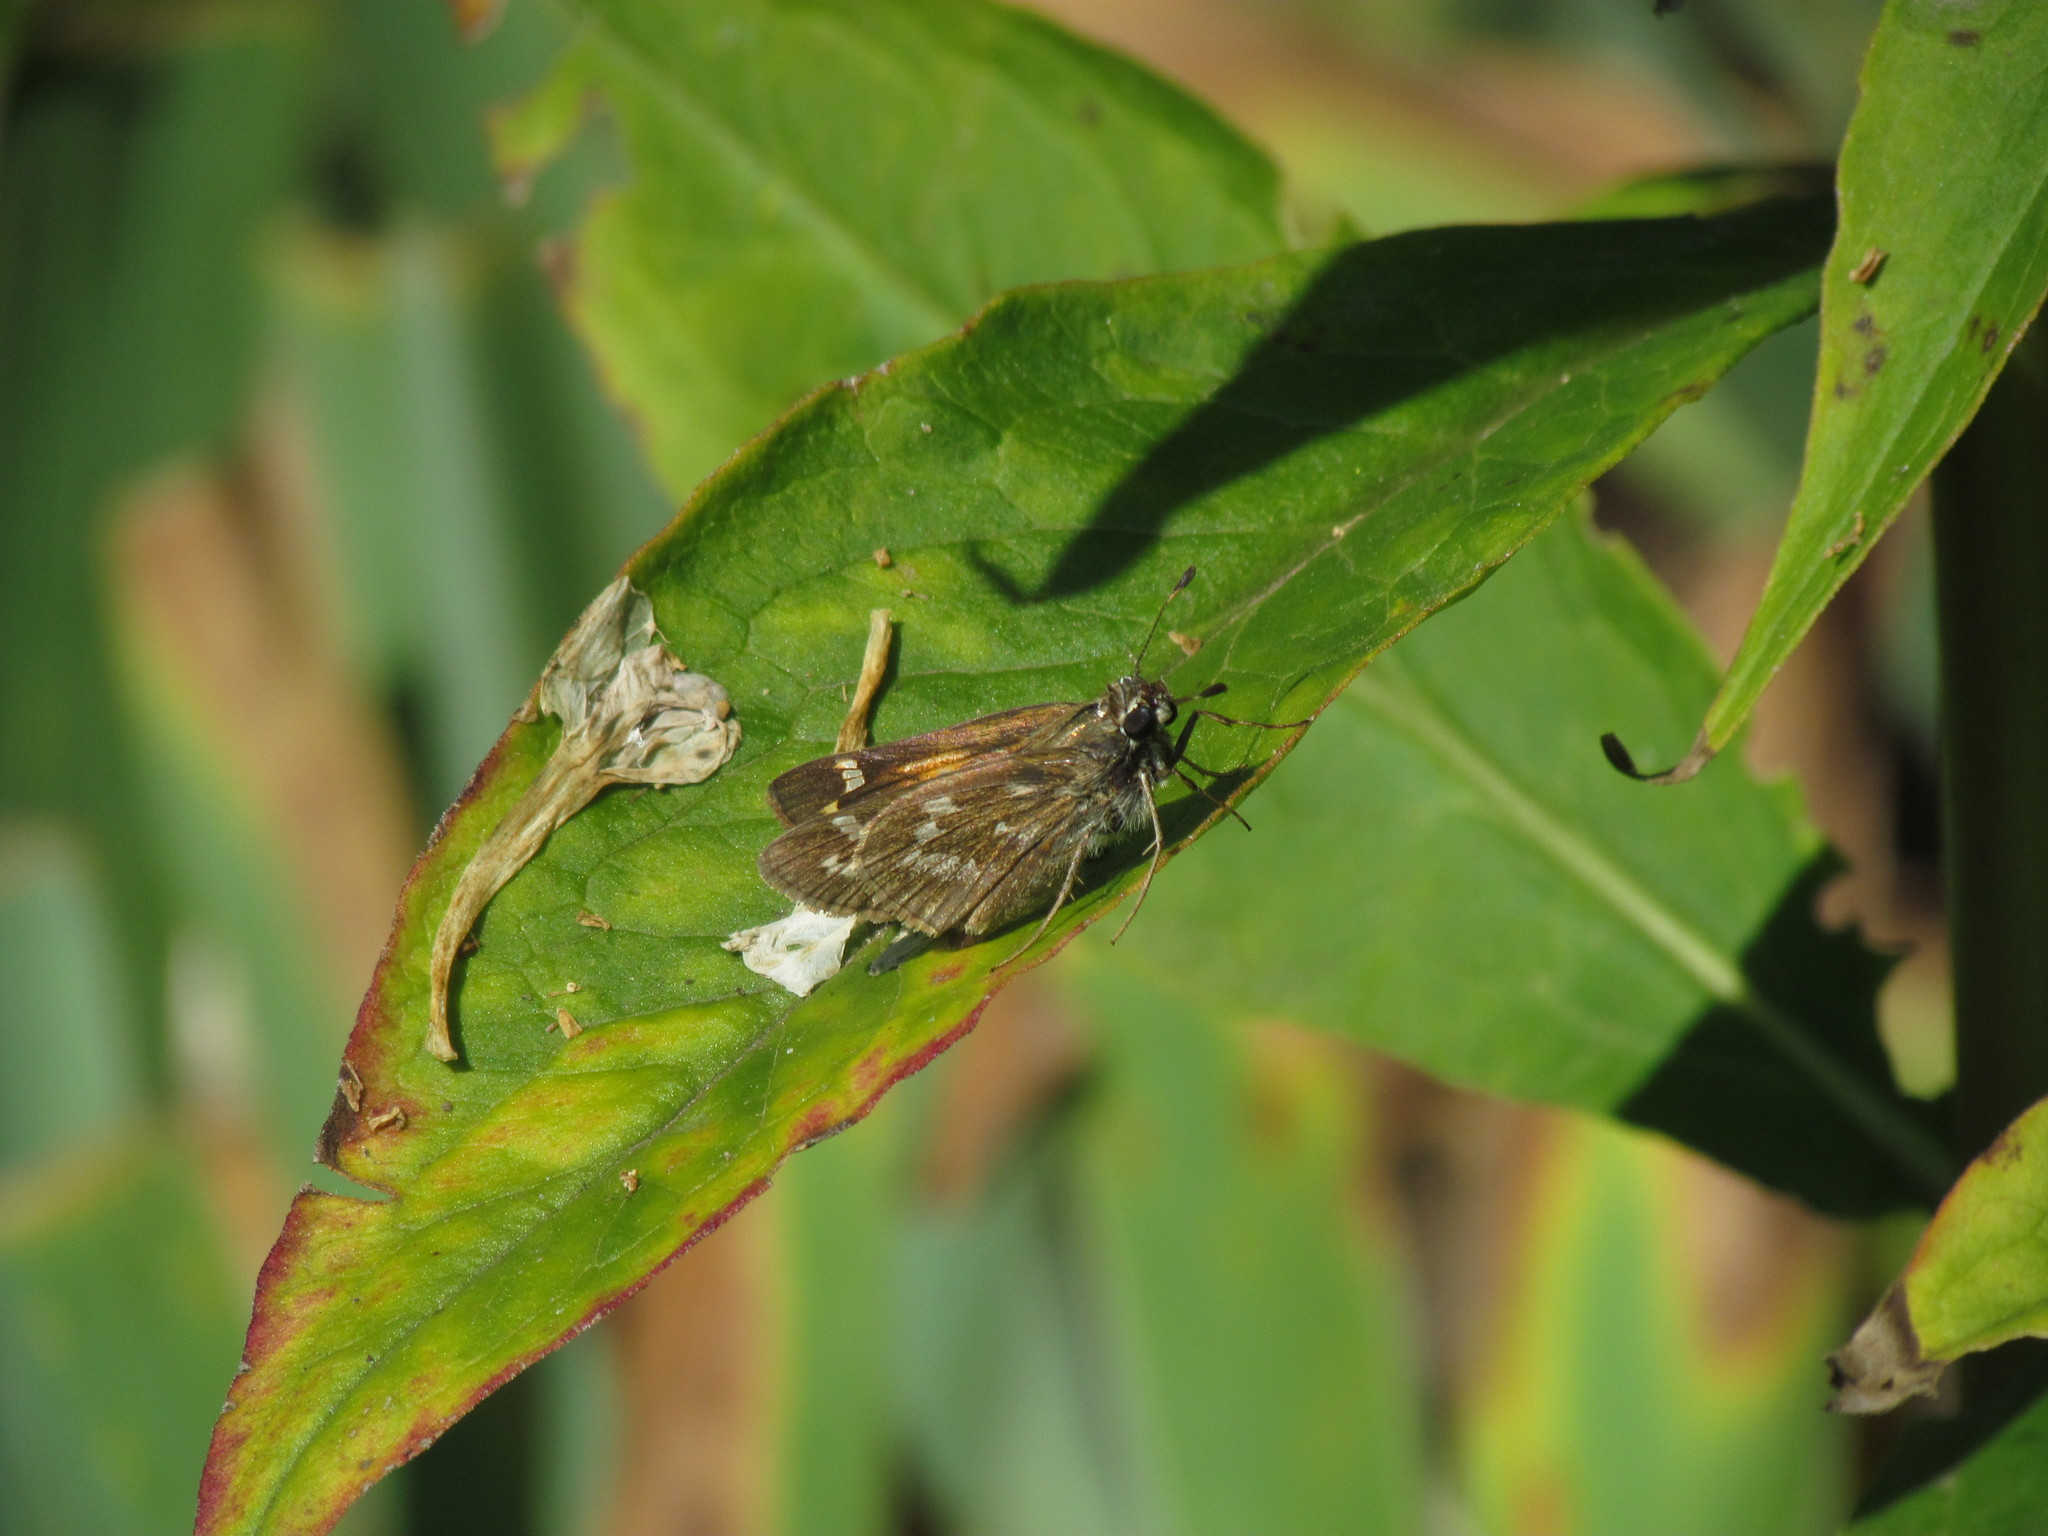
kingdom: Animalia
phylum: Arthropoda
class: Insecta
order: Lepidoptera
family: Hesperiidae
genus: Atalopedes
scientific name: Atalopedes
